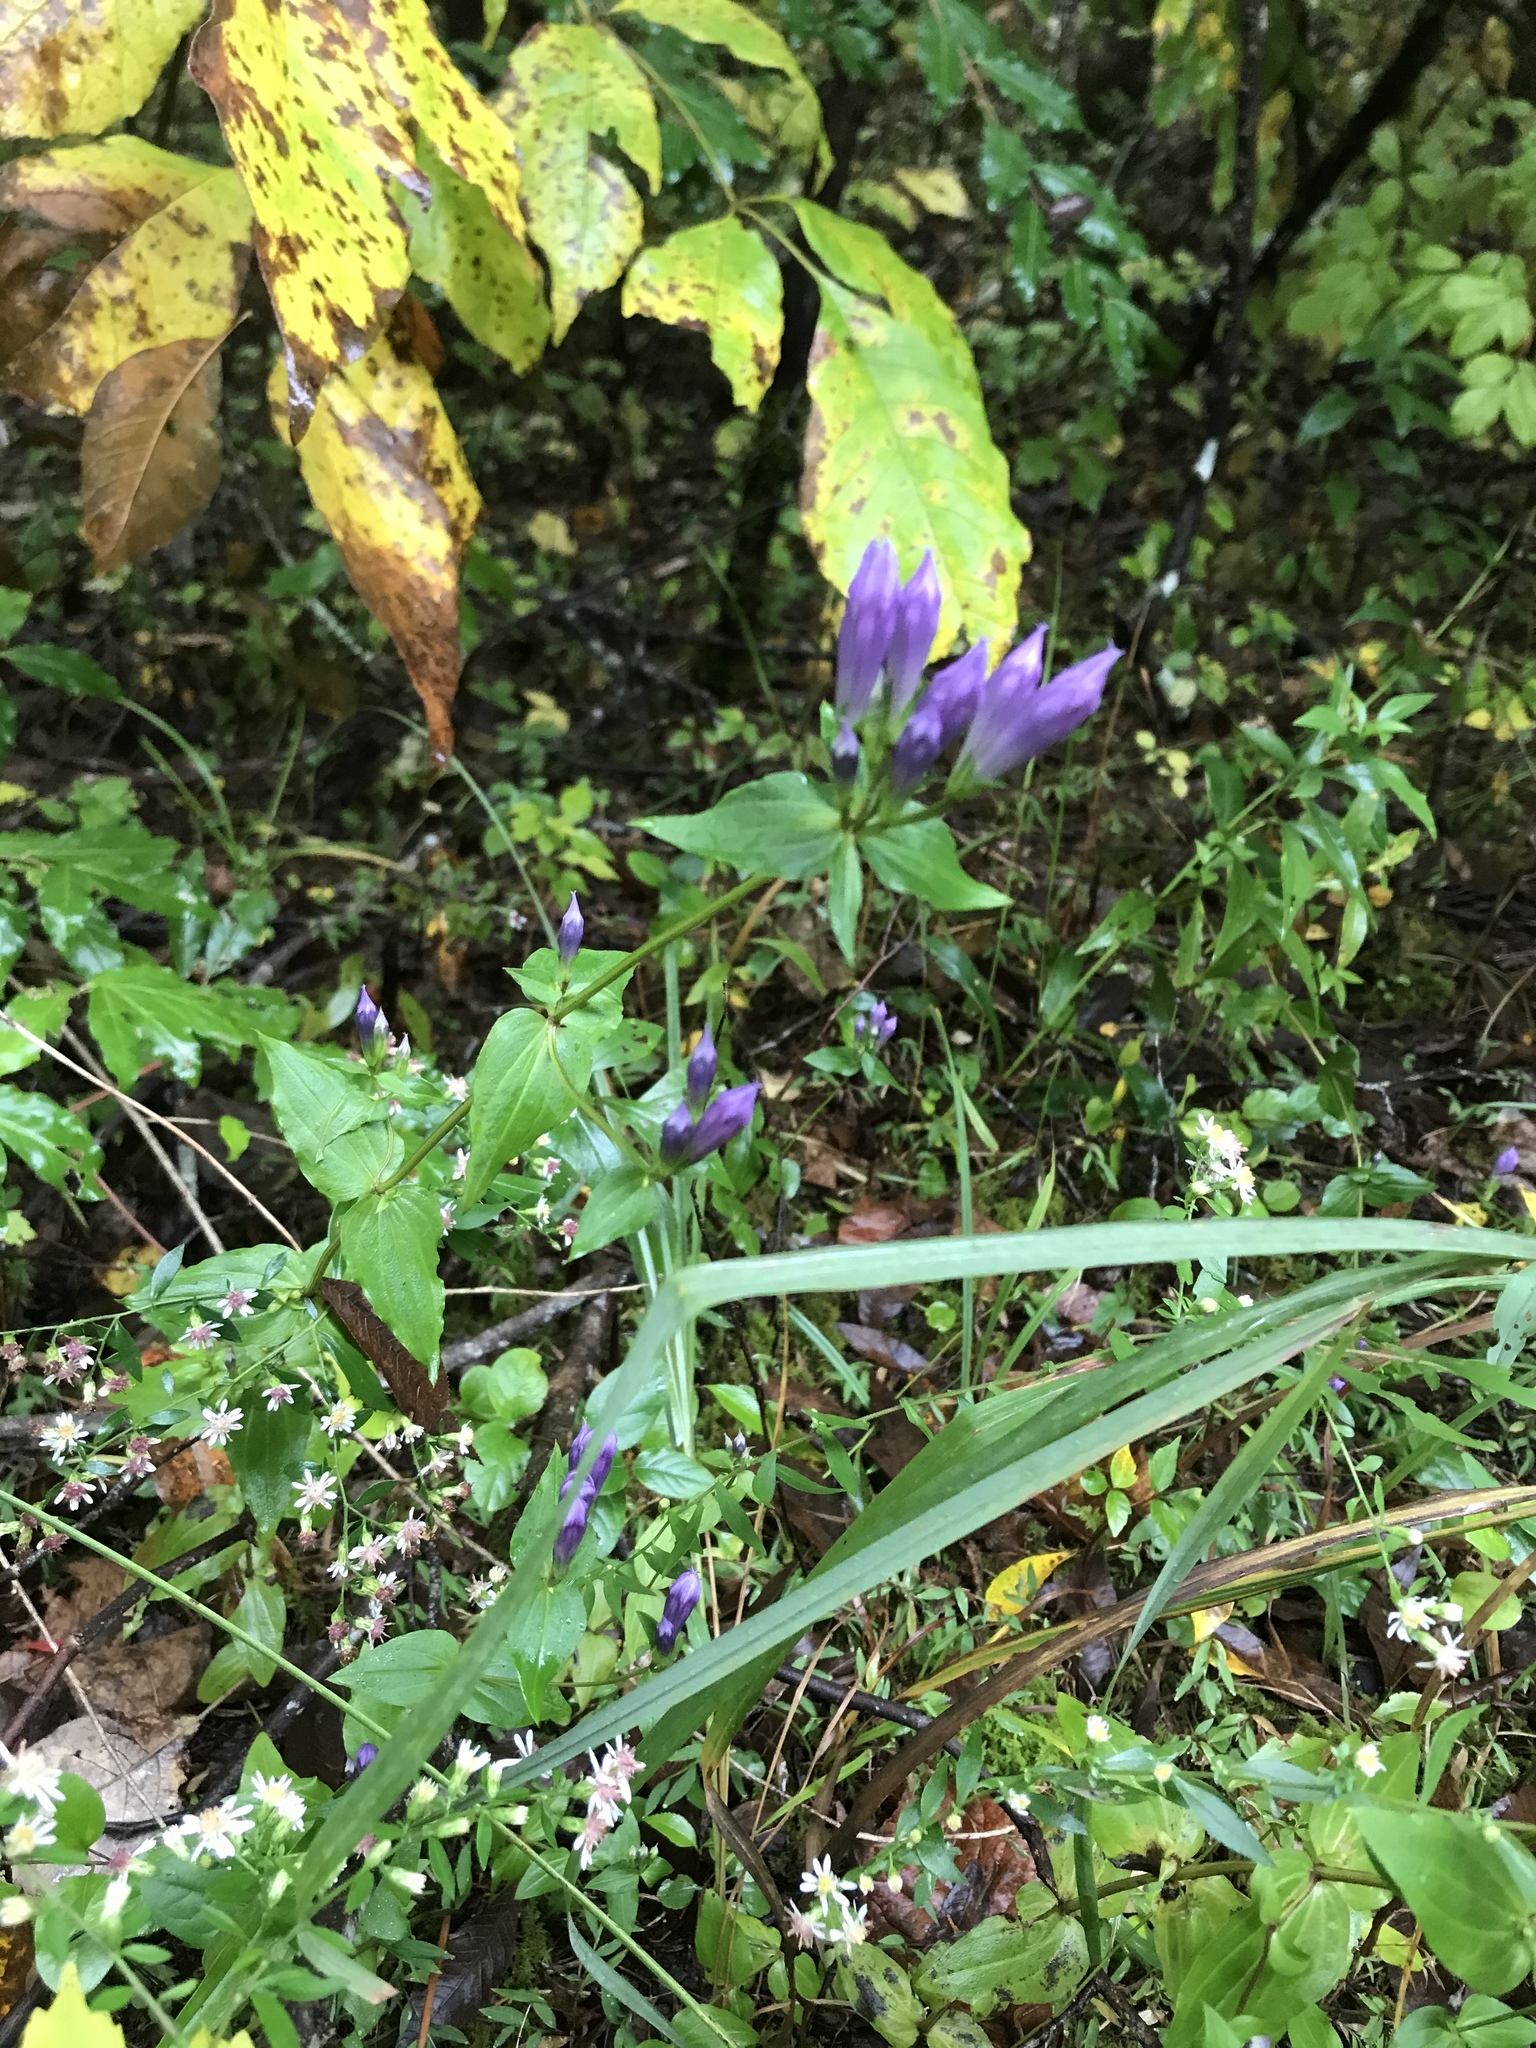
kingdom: Plantae
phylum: Tracheophyta
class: Magnoliopsida
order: Gentianales
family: Gentianaceae
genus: Gentianella
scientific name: Gentianella quinquefolia
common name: Agueweed
